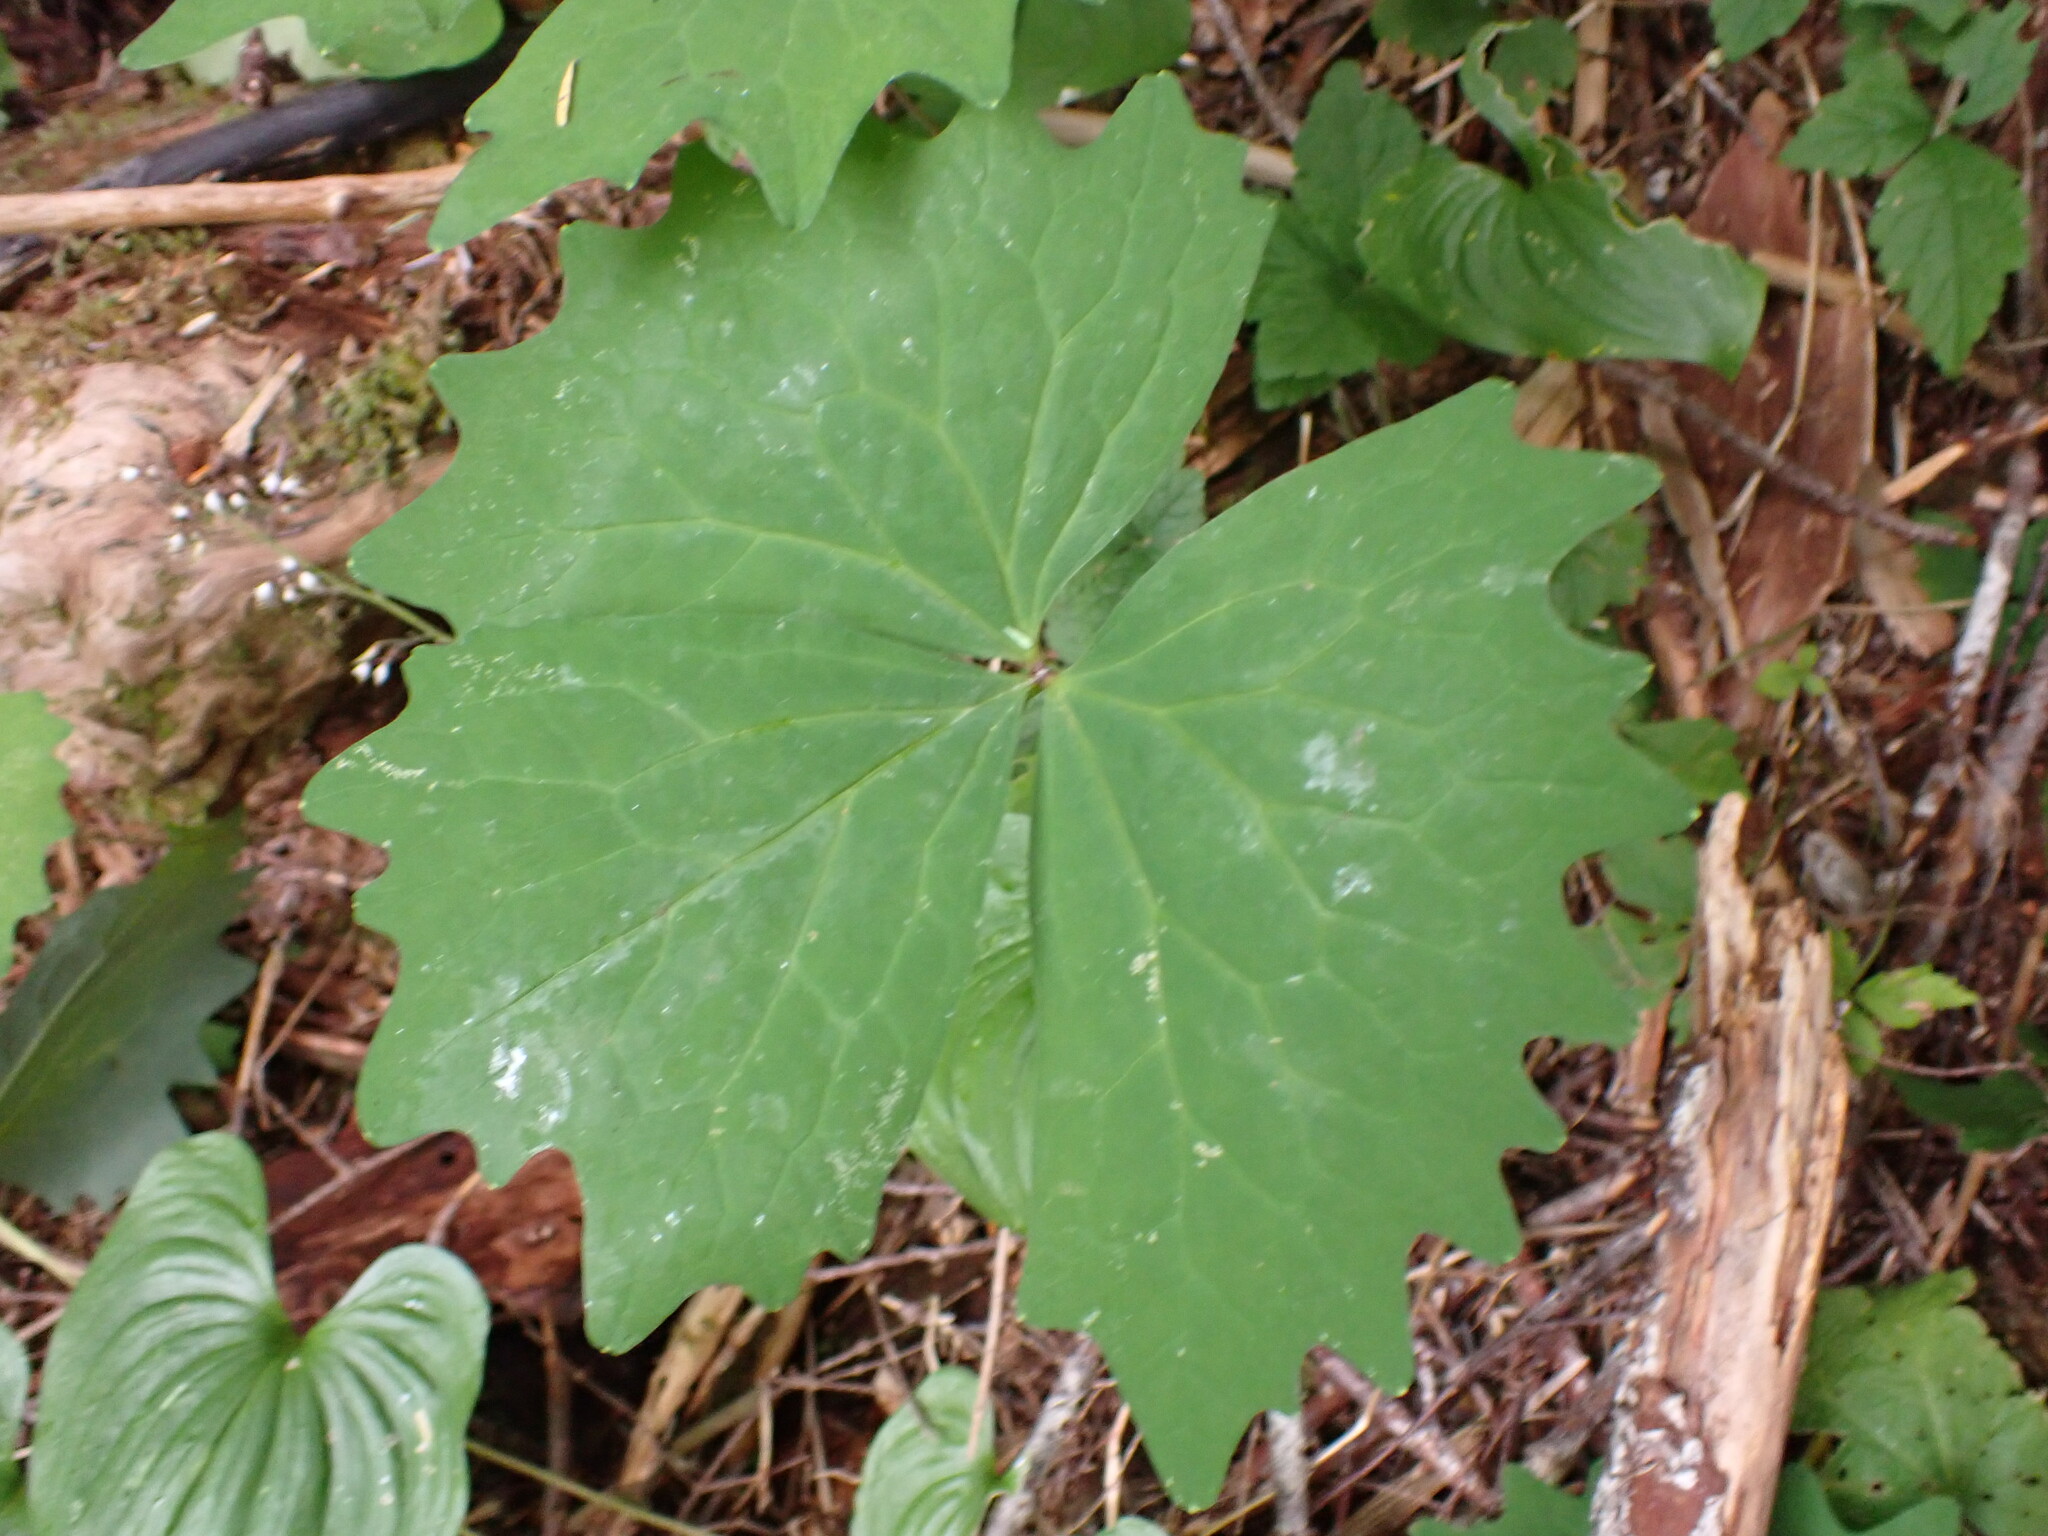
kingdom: Plantae
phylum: Tracheophyta
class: Magnoliopsida
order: Ranunculales
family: Berberidaceae
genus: Achlys
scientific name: Achlys triphylla
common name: Vanilla-leaf
